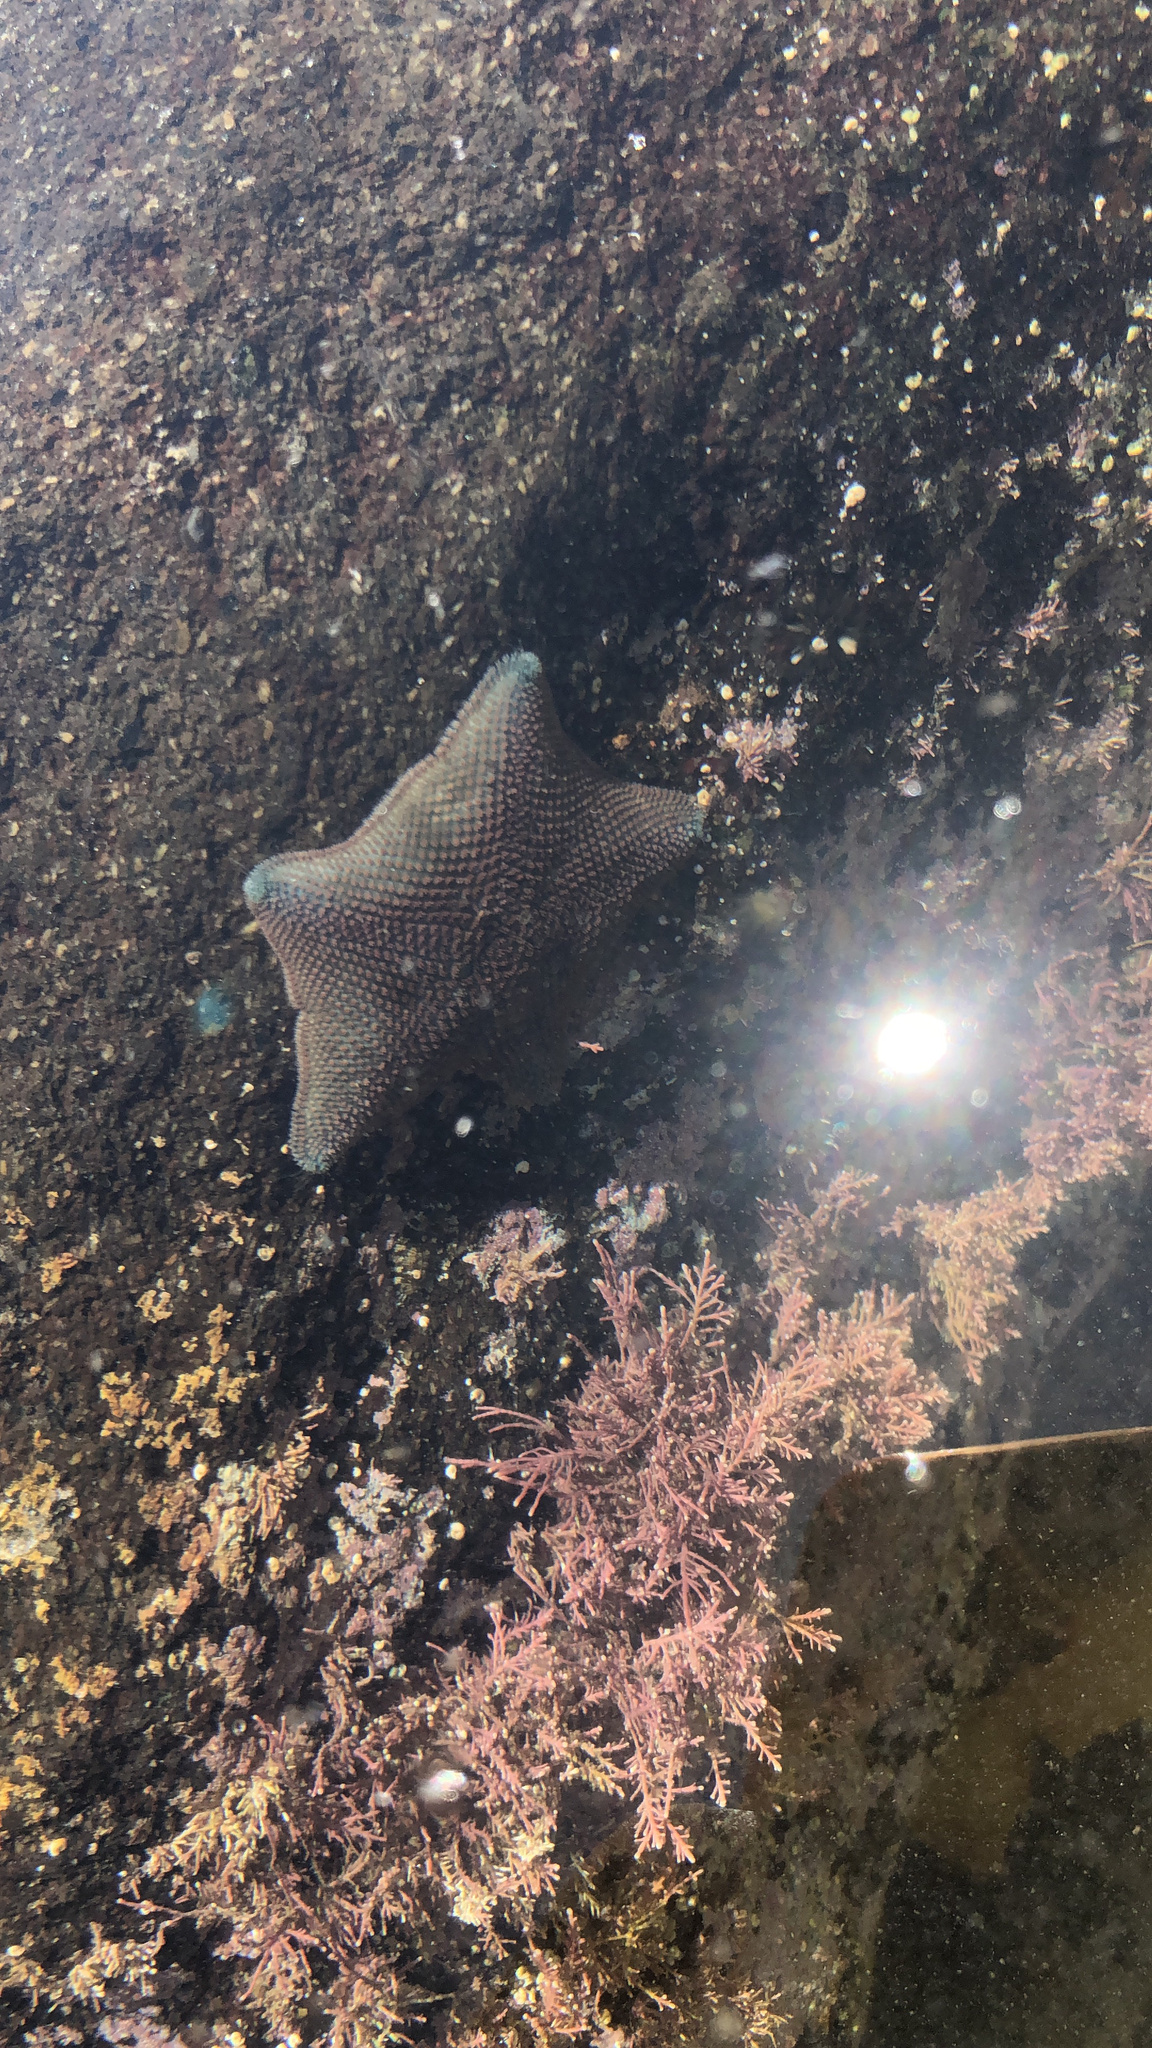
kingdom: Animalia
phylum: Echinodermata
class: Asteroidea
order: Valvatida
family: Asterinidae
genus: Patiriella
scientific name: Patiriella regularis
